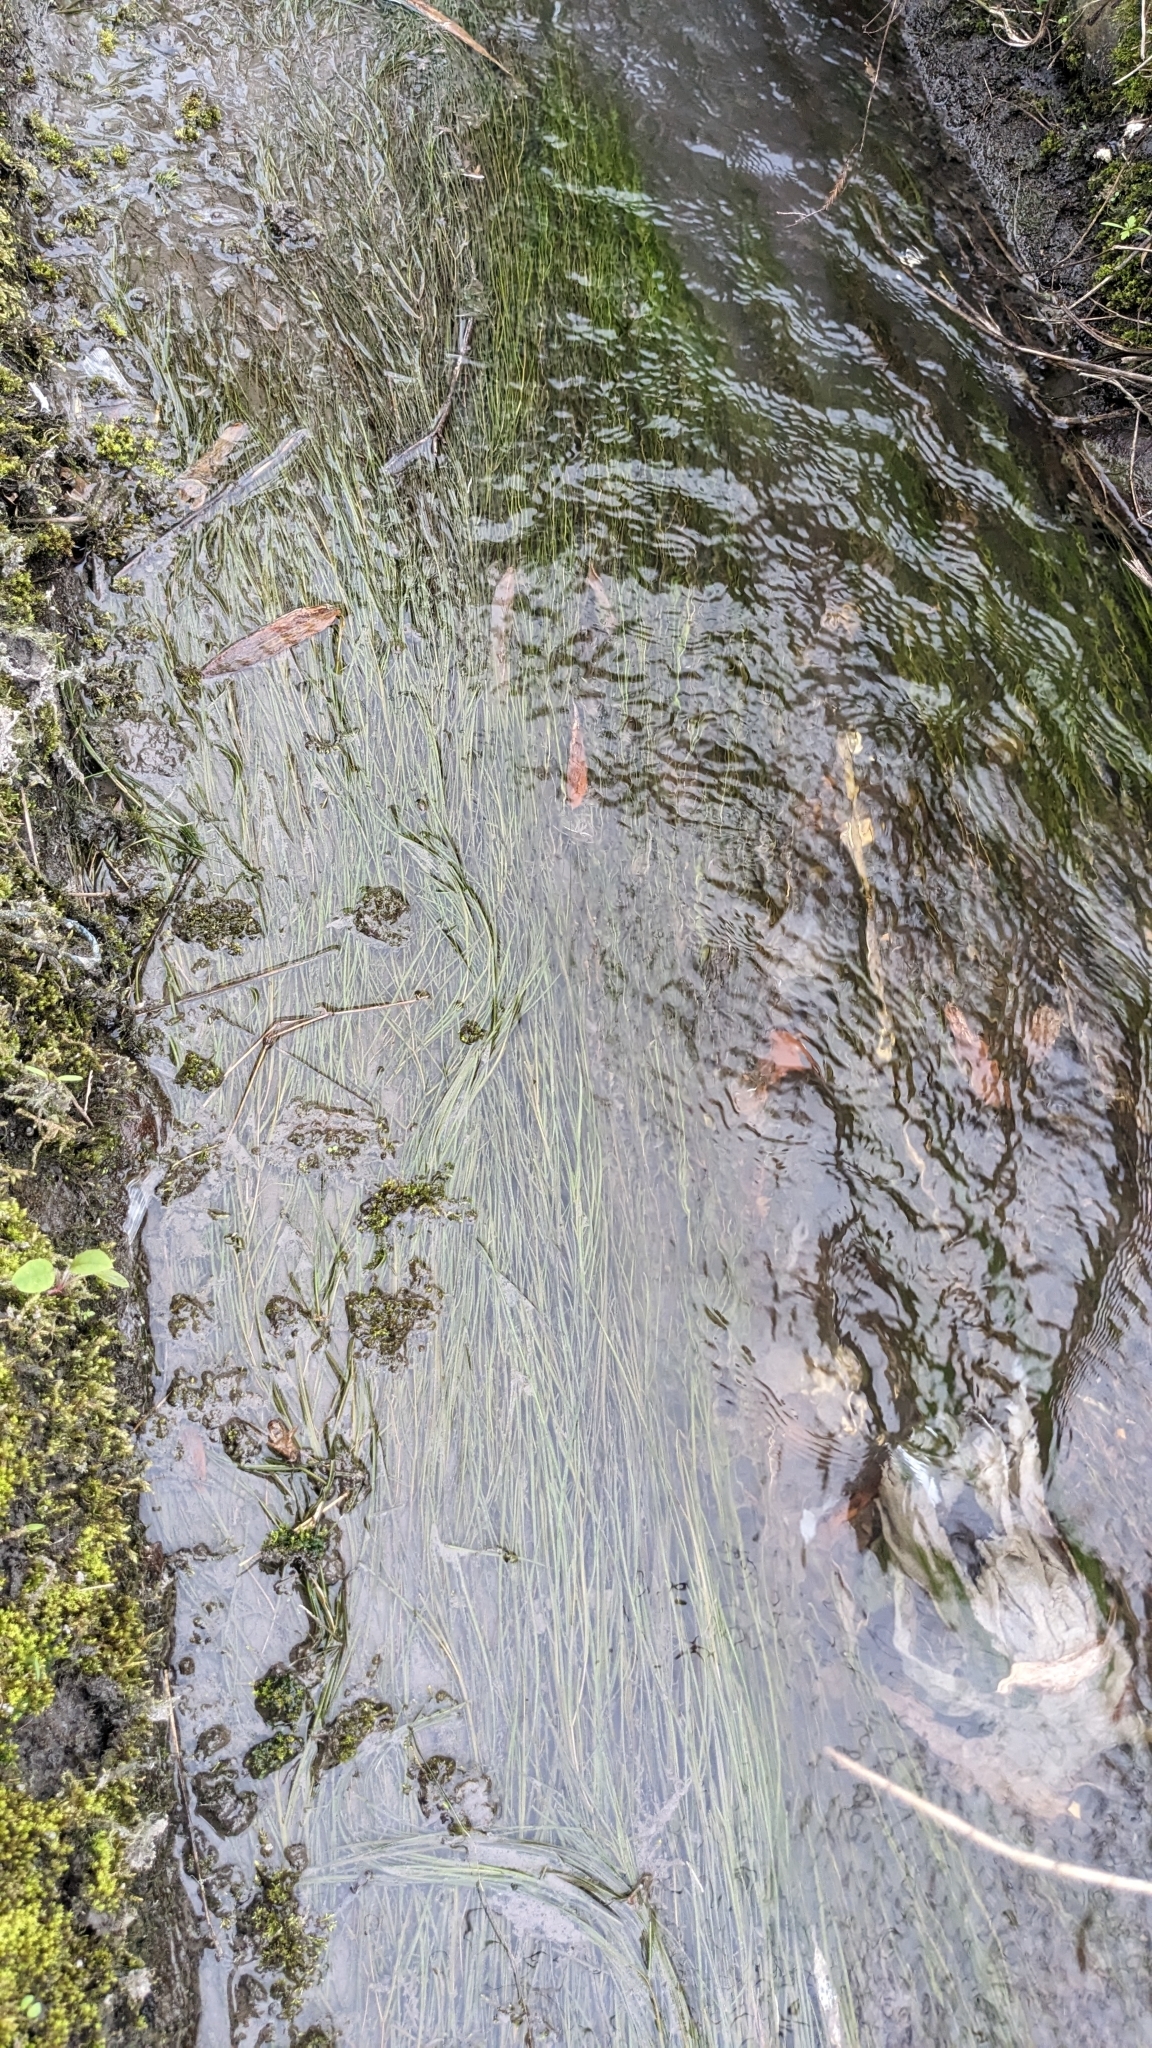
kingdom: Plantae
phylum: Tracheophyta
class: Liliopsida
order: Alismatales
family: Potamogetonaceae
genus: Stuckenia
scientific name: Stuckenia pectinata
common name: Sago pondweed
